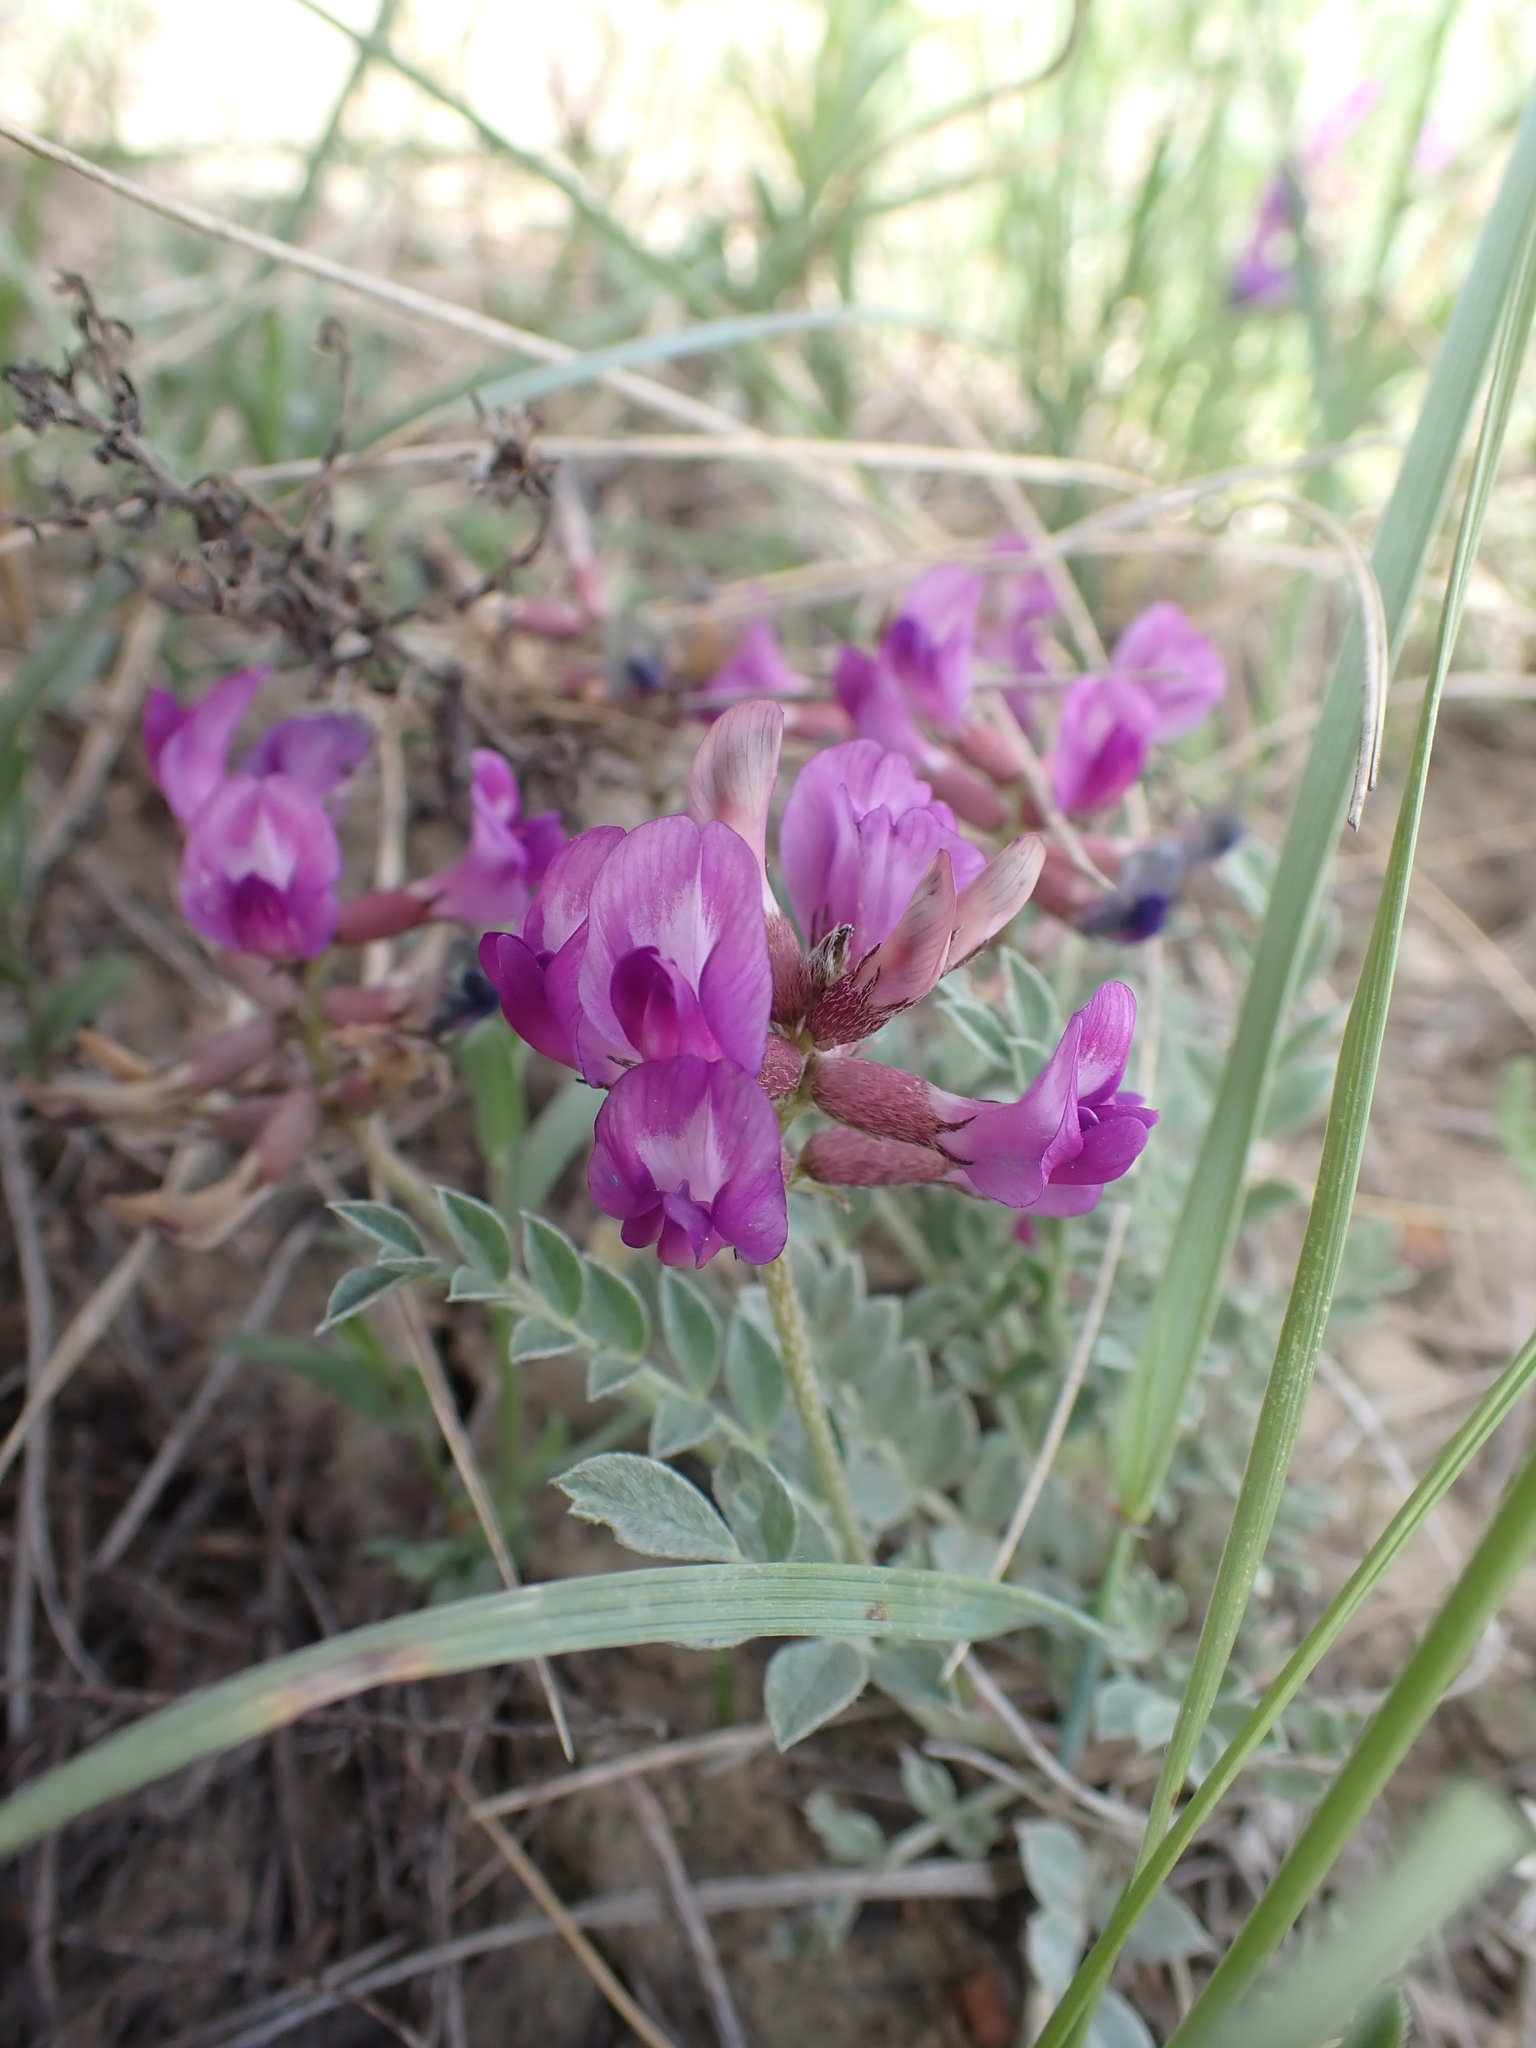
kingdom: Plantae
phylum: Tracheophyta
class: Magnoliopsida
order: Fabales
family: Fabaceae
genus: Astragalus
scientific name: Astragalus missouriensis
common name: Missouri milk-vetch
